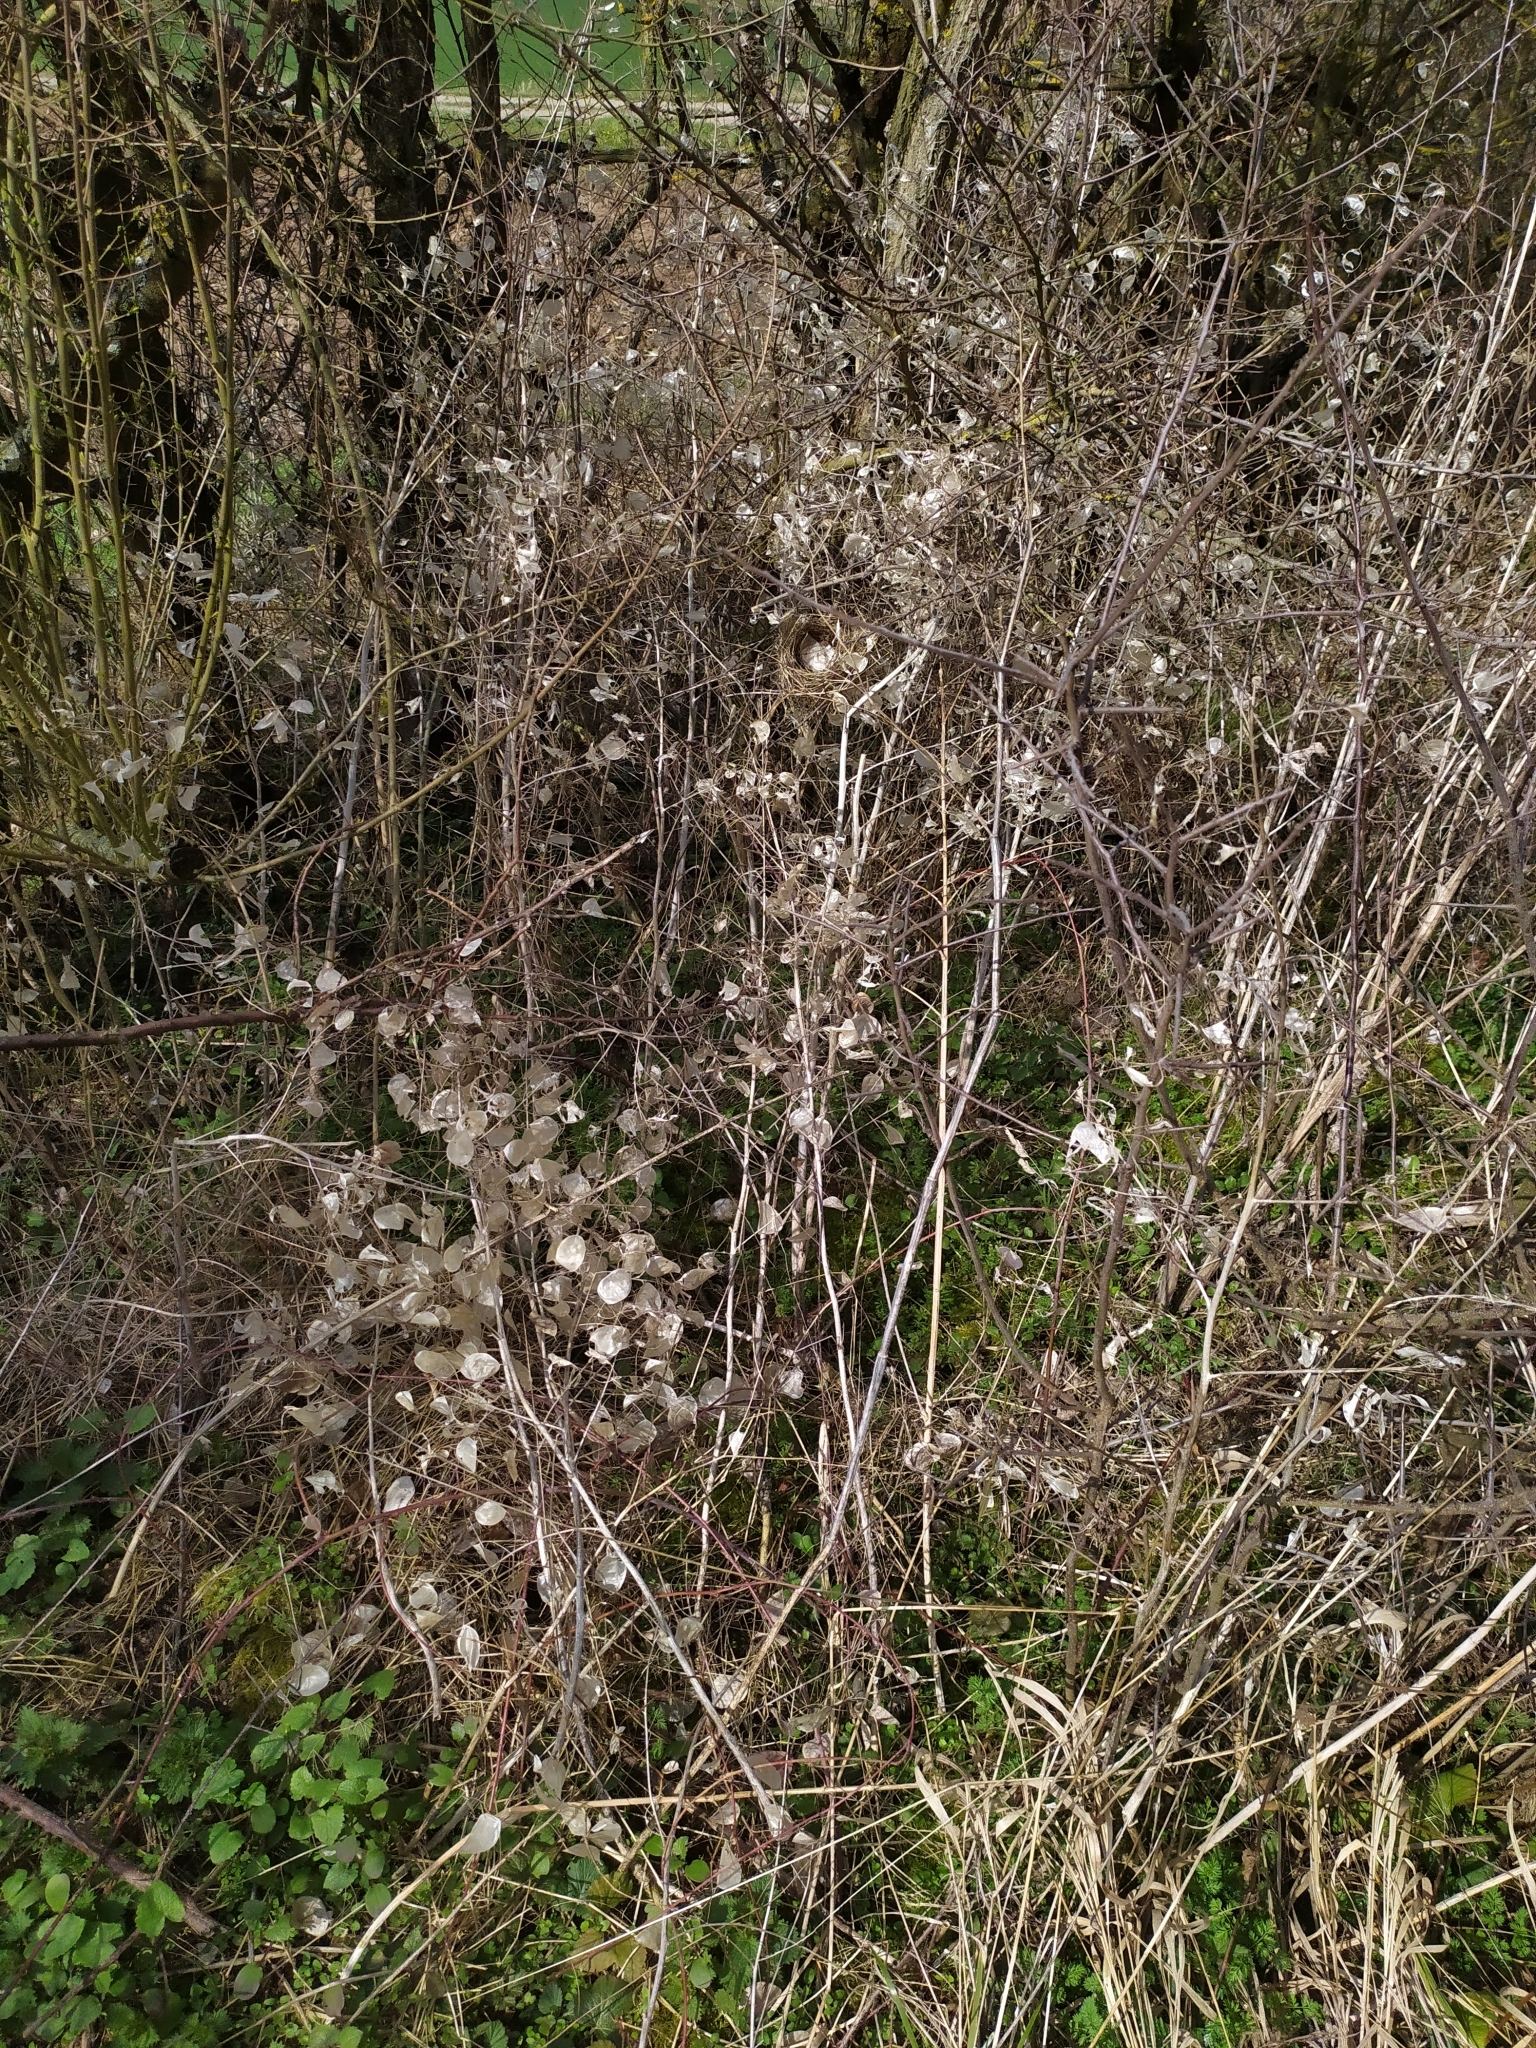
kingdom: Plantae
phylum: Tracheophyta
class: Magnoliopsida
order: Brassicales
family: Brassicaceae
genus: Lunaria
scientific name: Lunaria annua
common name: Honesty
